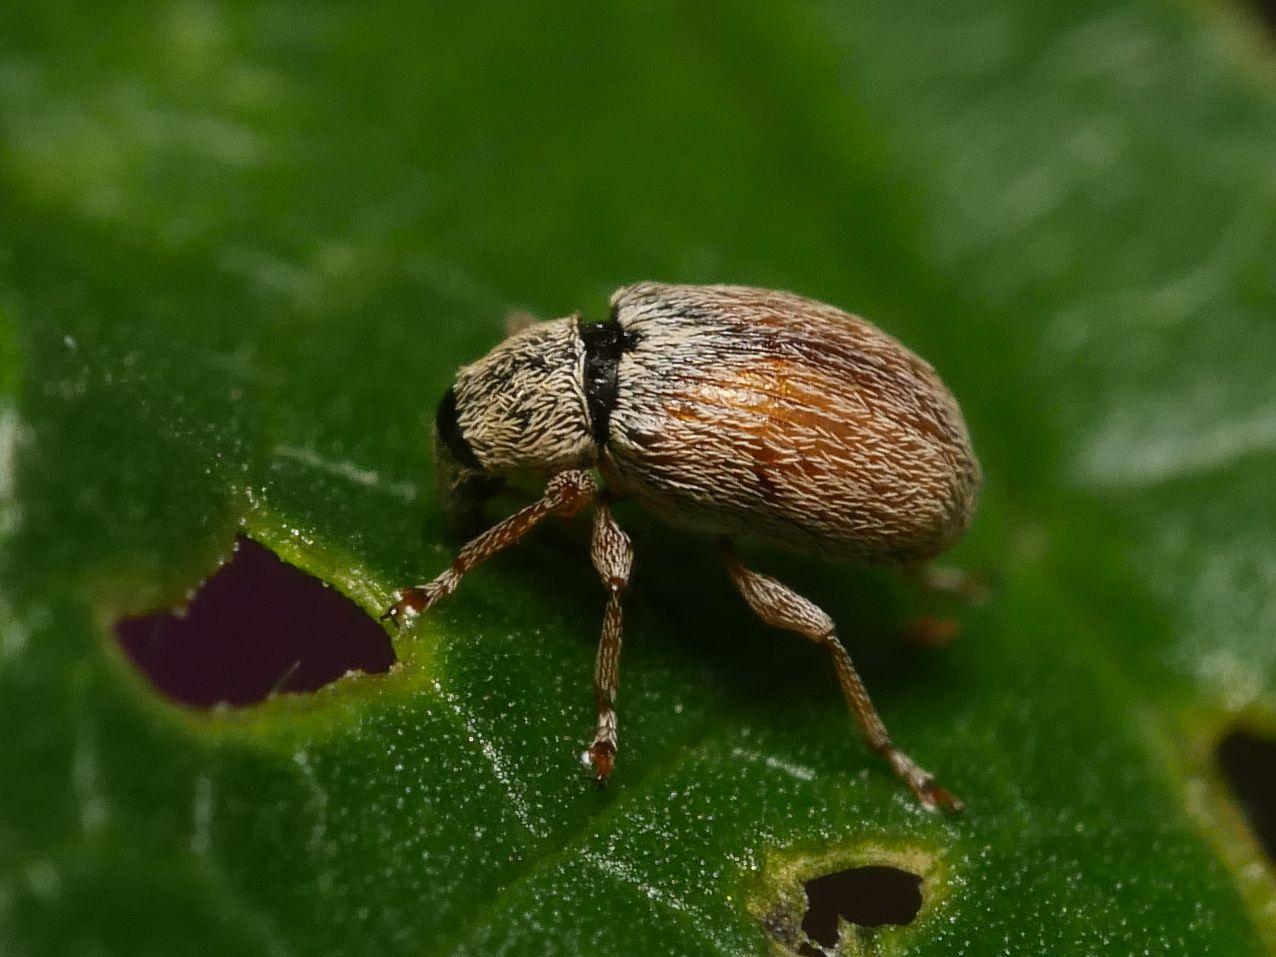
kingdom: Animalia
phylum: Arthropoda
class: Insecta
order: Coleoptera
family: Apionidae
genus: Malvapion
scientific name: Malvapion malvae
